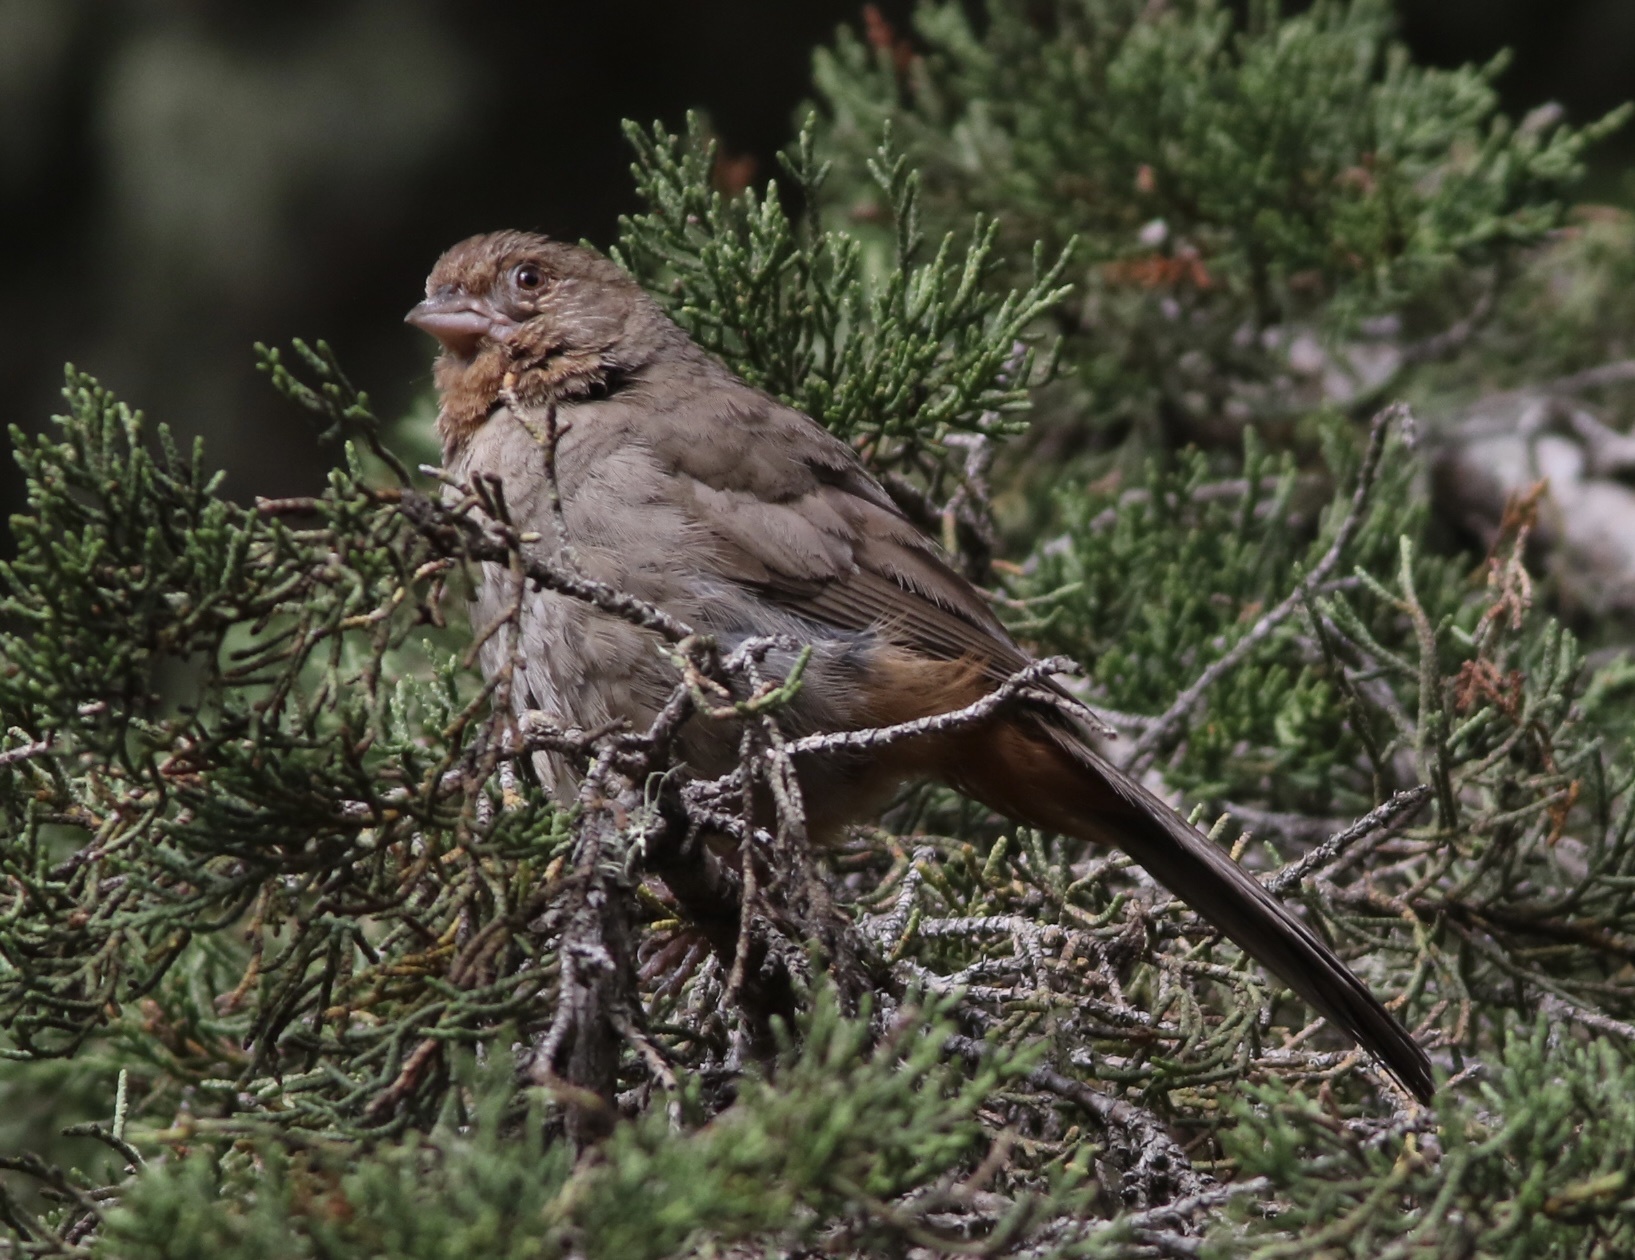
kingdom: Animalia
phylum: Chordata
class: Aves
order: Passeriformes
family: Passerellidae
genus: Melozone
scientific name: Melozone crissalis
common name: California towhee
